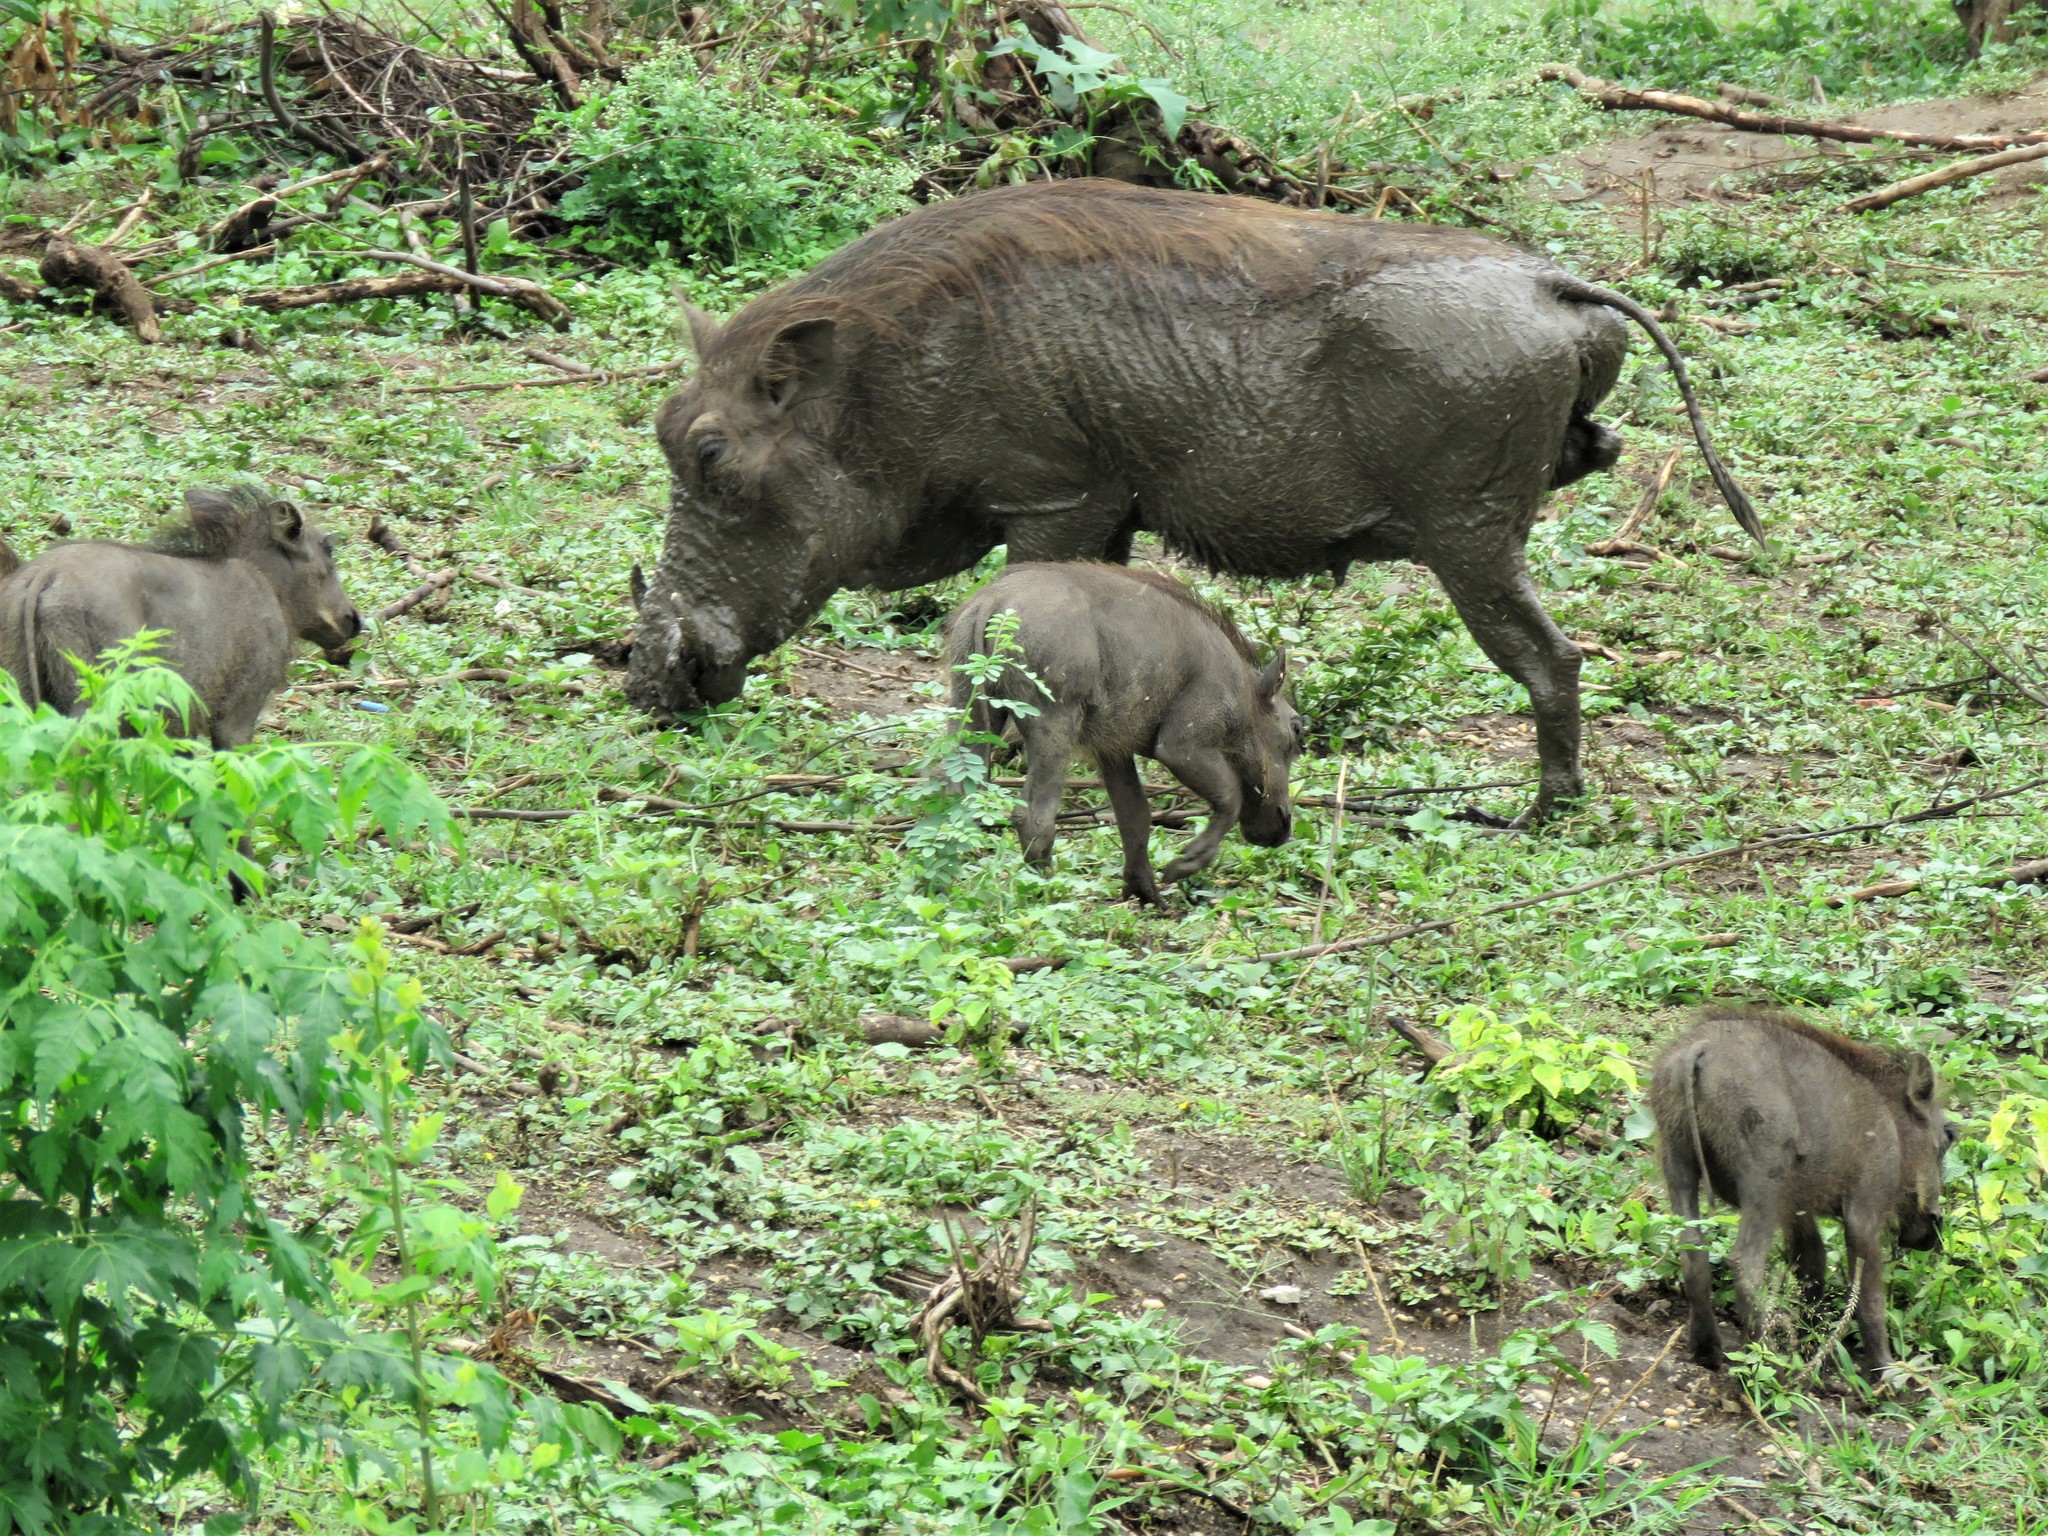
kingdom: Animalia
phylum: Chordata
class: Mammalia
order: Artiodactyla
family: Suidae
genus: Phacochoerus
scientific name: Phacochoerus africanus
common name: Common warthog
